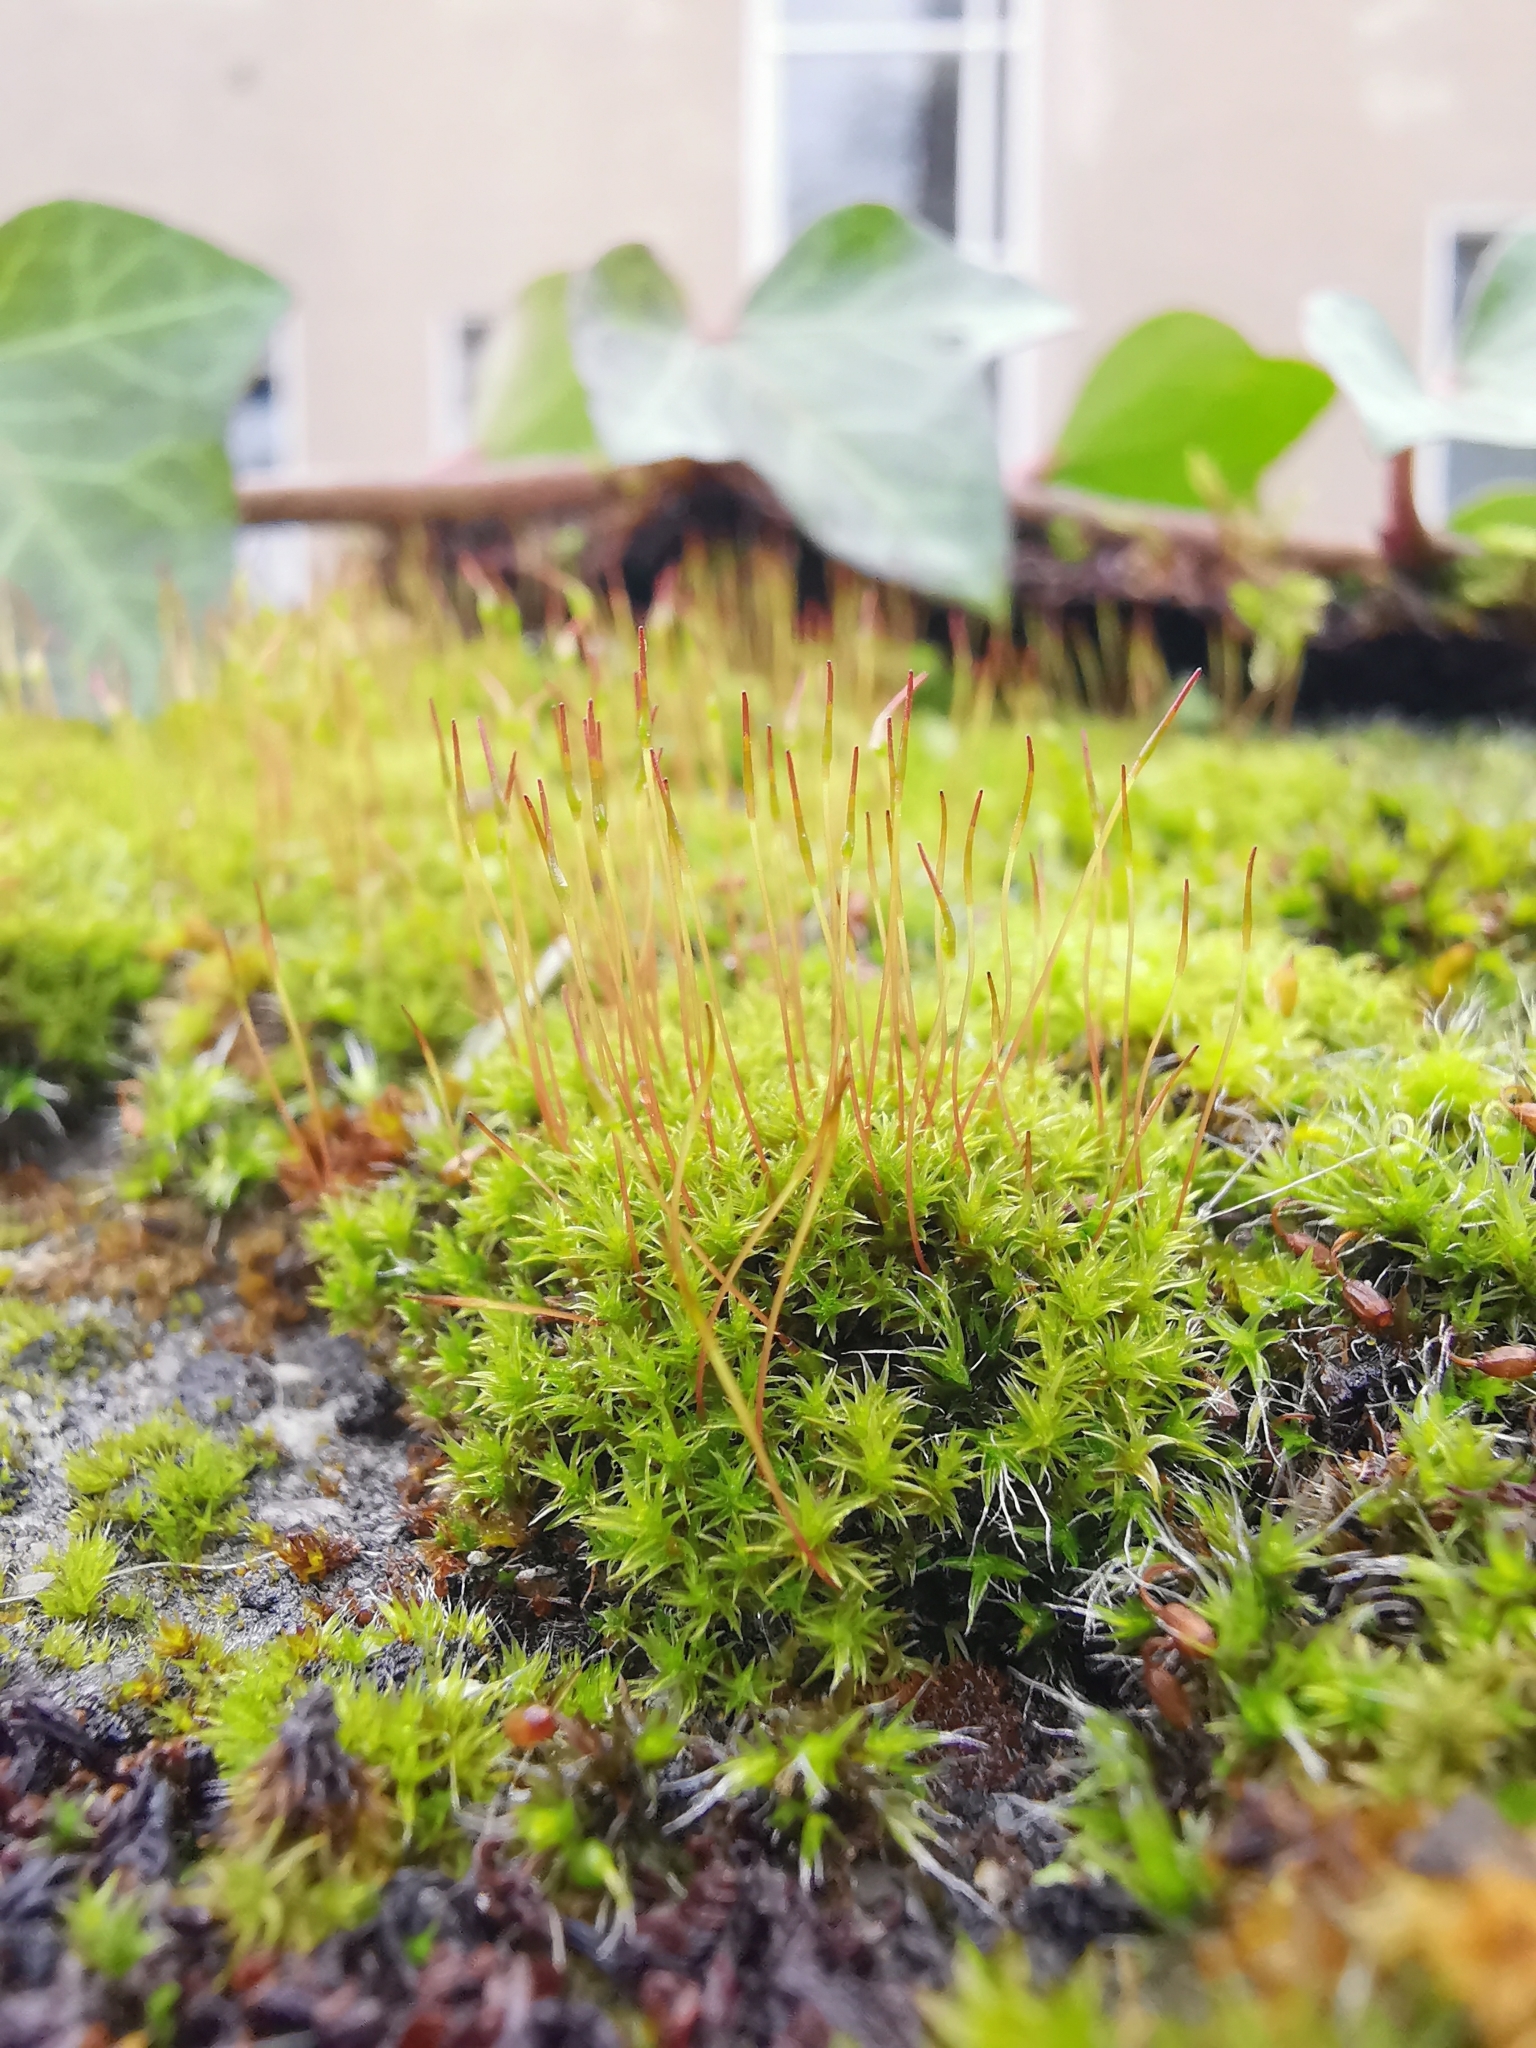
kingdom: Plantae
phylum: Bryophyta
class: Bryopsida
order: Dicranales
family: Ditrichaceae
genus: Ceratodon
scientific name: Ceratodon purpureus
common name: Redshank
